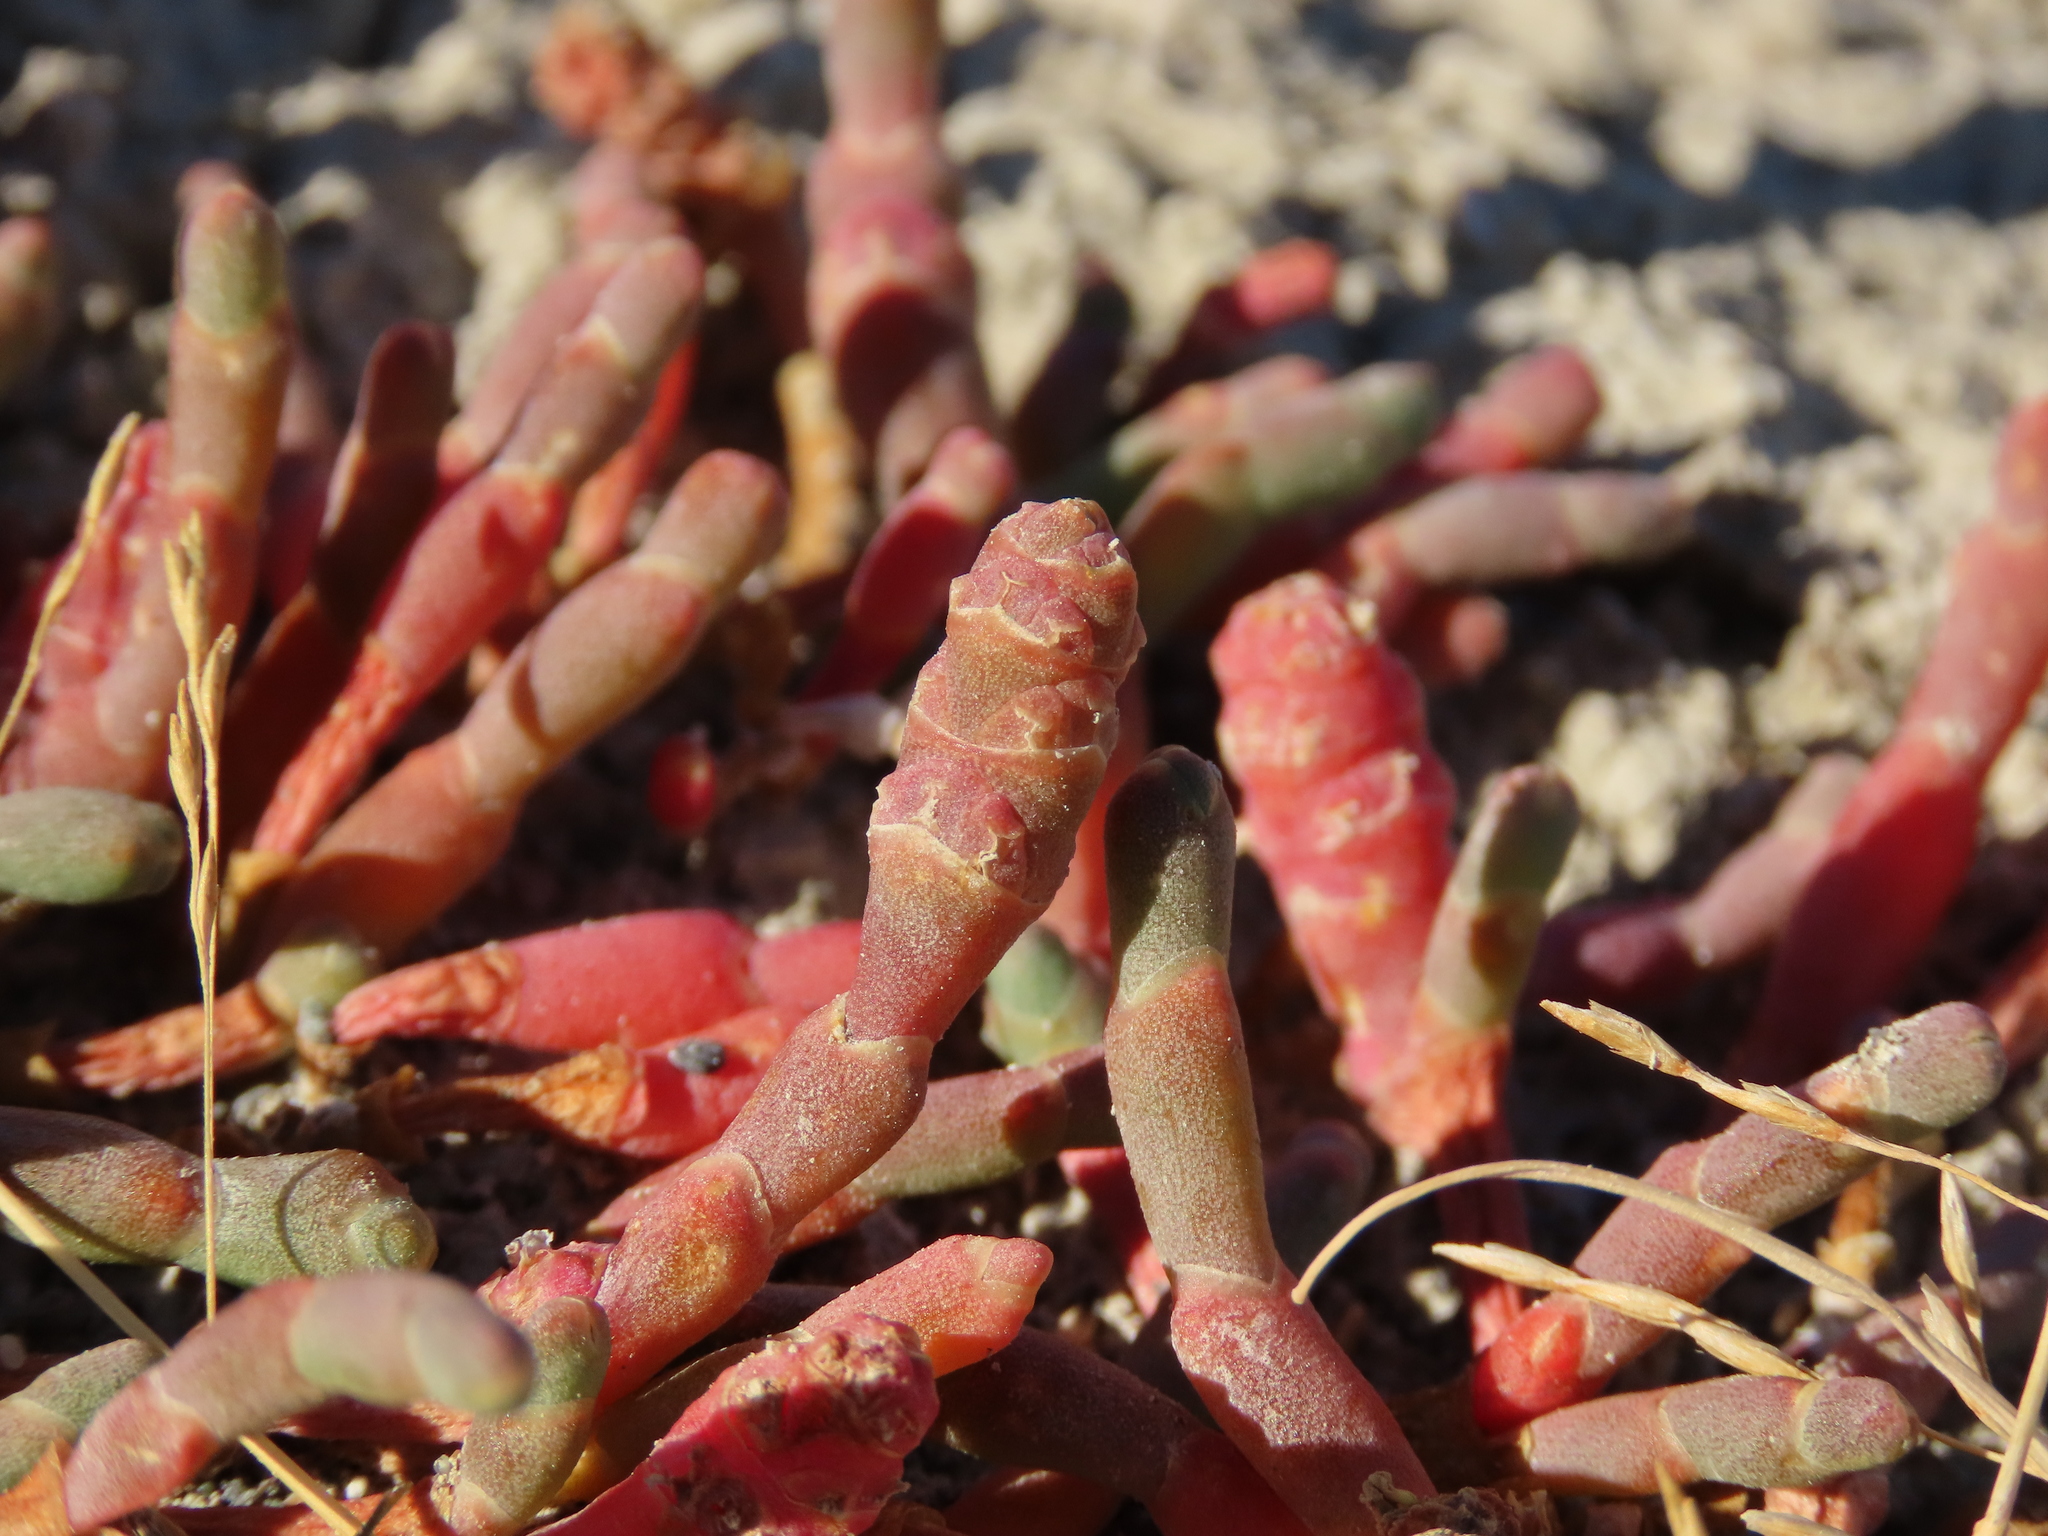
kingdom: Plantae
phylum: Tracheophyta
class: Magnoliopsida
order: Caryophyllales
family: Amaranthaceae
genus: Salicornia
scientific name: Salicornia magellanica
